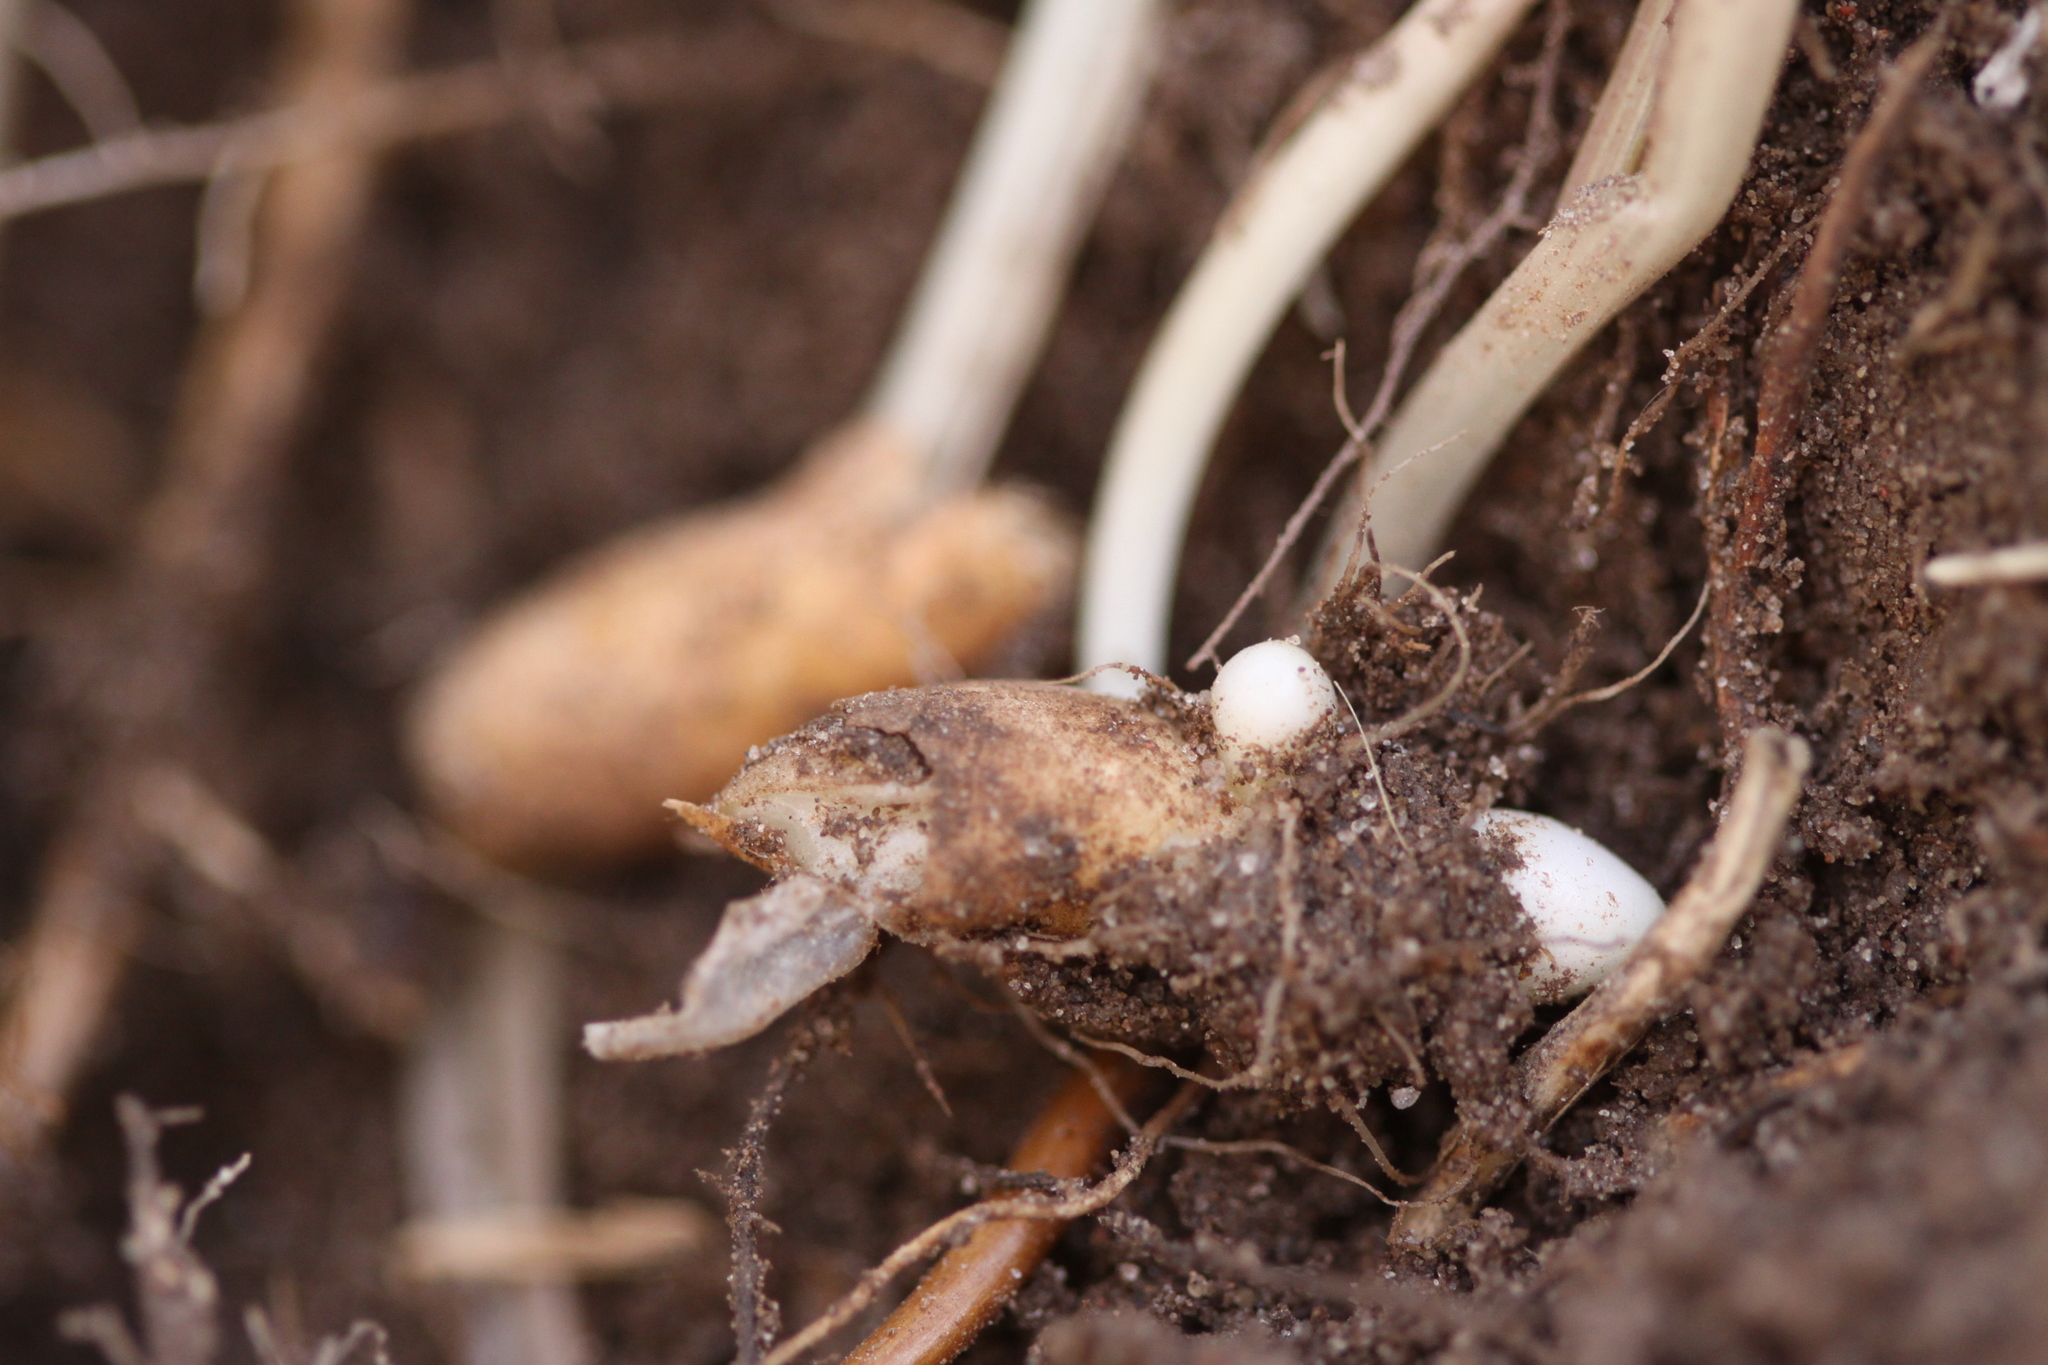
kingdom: Plantae
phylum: Tracheophyta
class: Liliopsida
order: Liliales
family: Liliaceae
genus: Gagea
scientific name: Gagea pratensis
